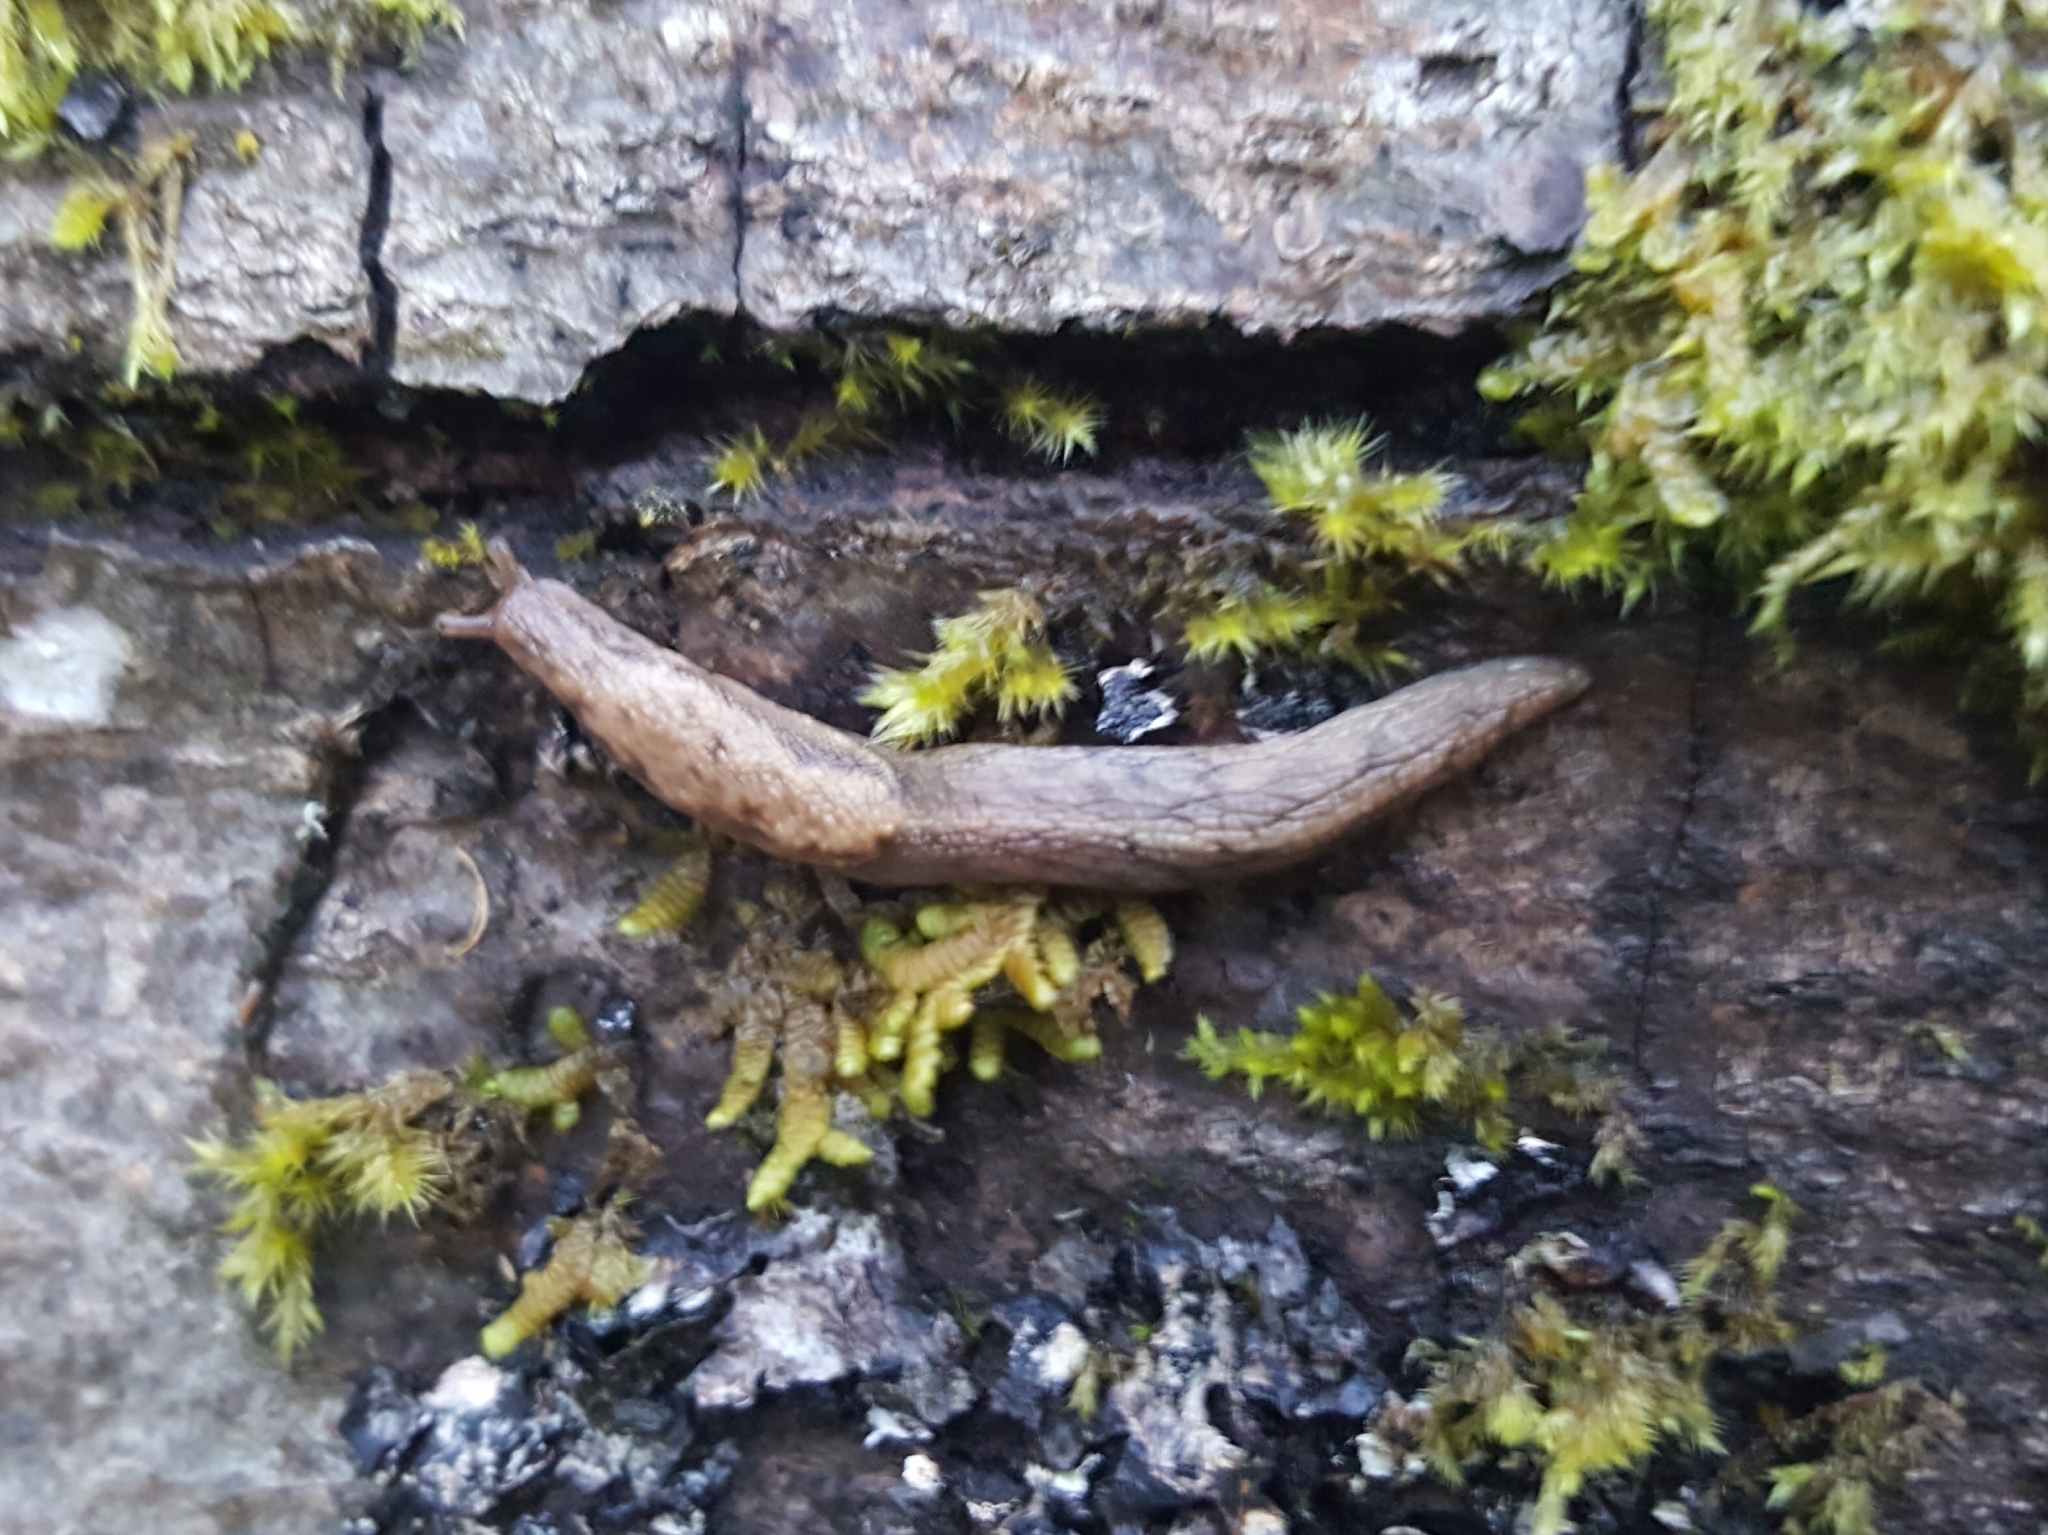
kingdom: Animalia
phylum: Mollusca
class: Gastropoda
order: Stylommatophora
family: Ariolimacidae
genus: Prophysaon
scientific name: Prophysaon andersonii
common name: Reticulate taildropper
